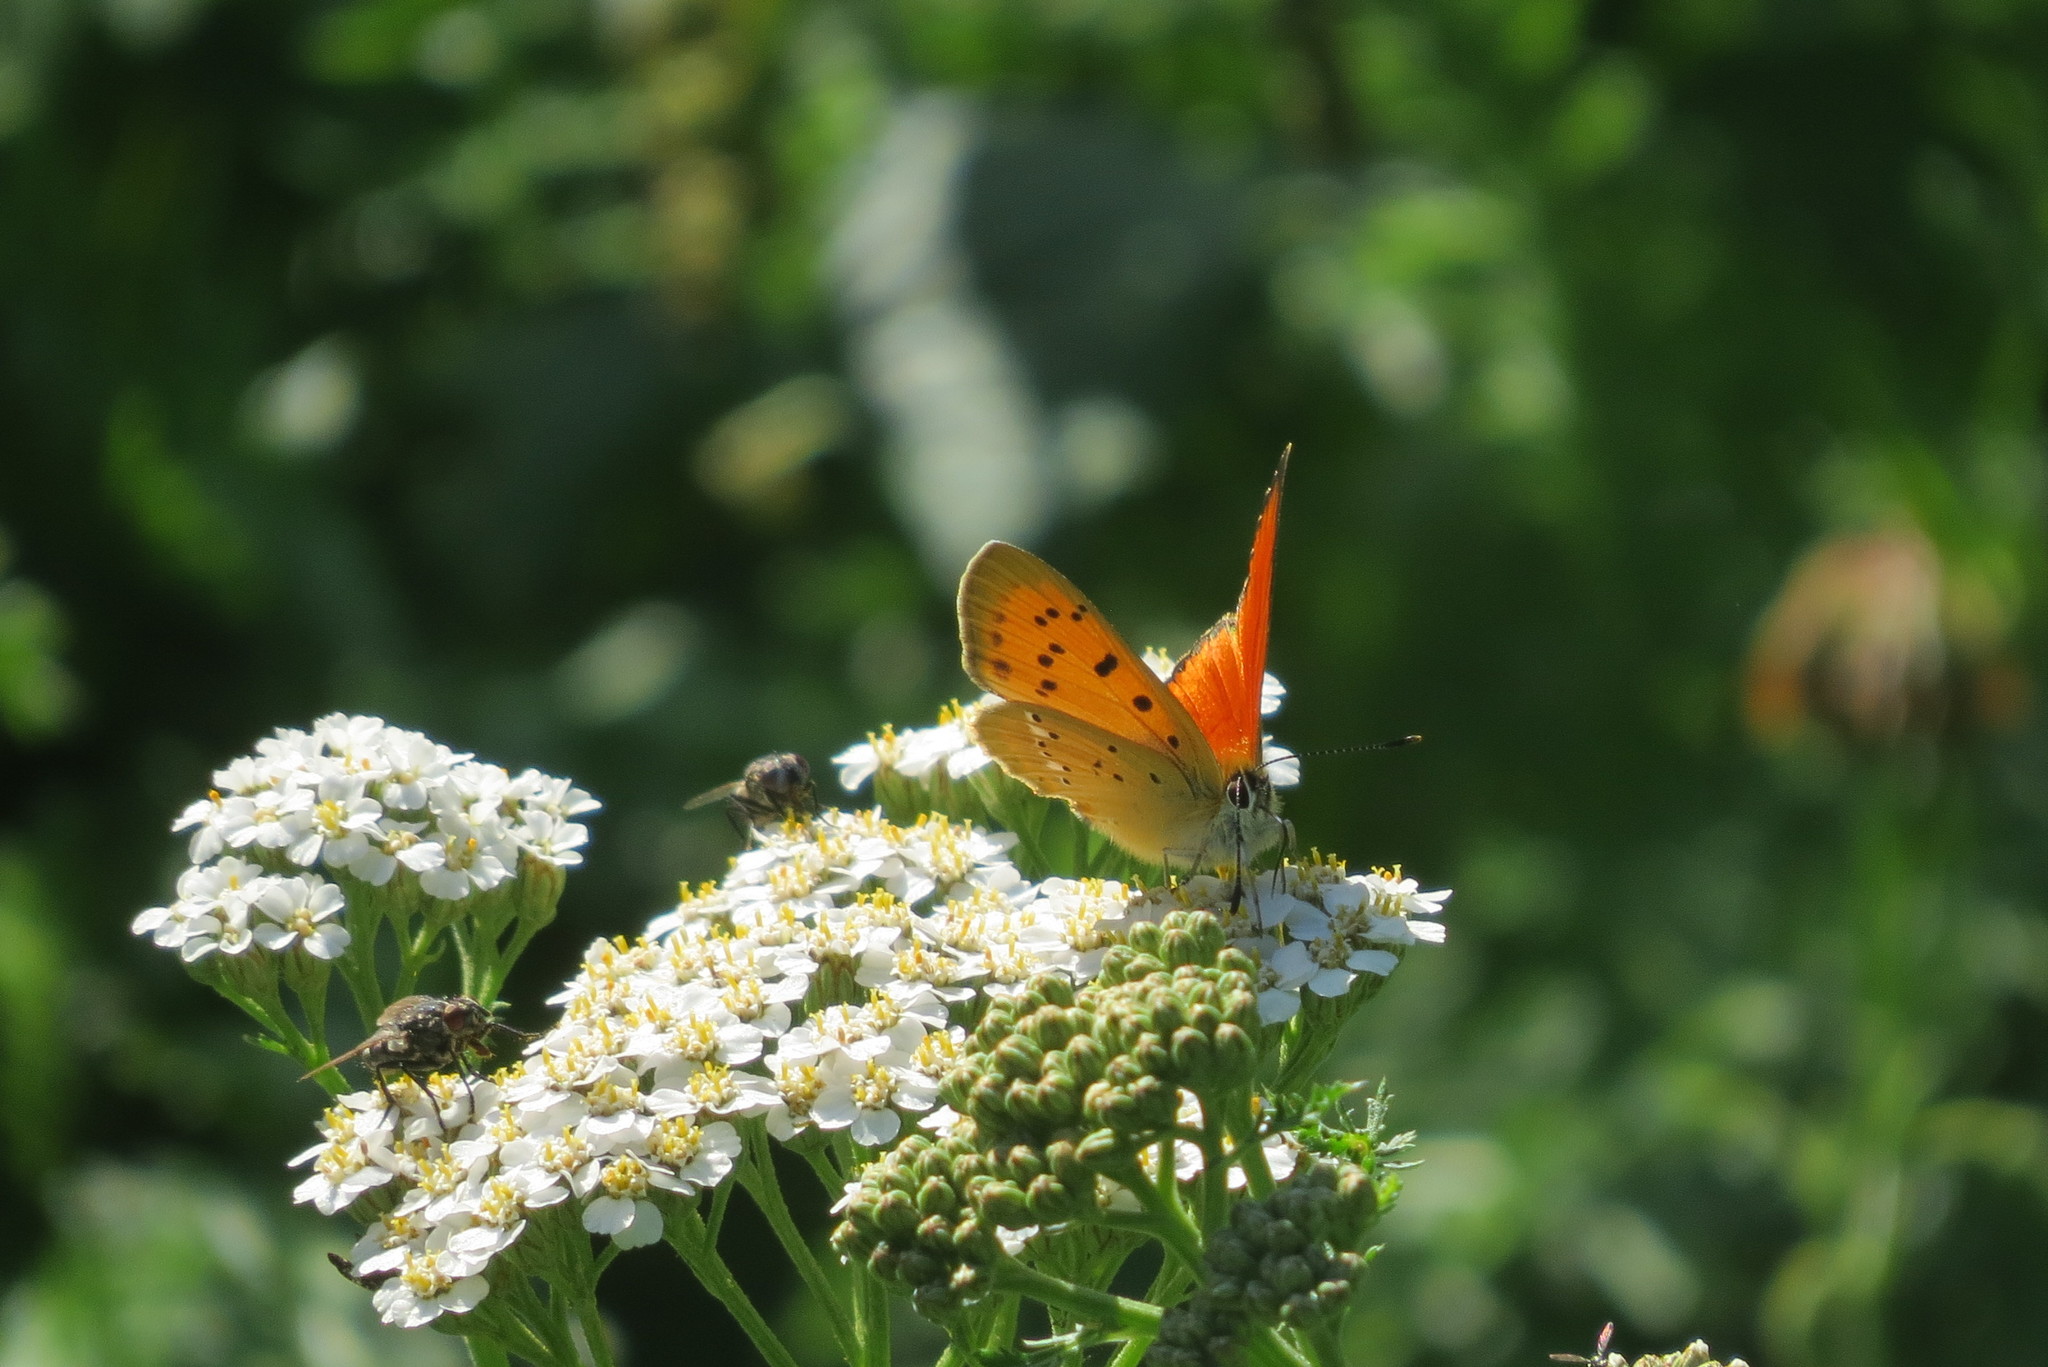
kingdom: Animalia
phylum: Arthropoda
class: Insecta
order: Lepidoptera
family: Lycaenidae
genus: Lycaena
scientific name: Lycaena virgaureae
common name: Scarce copper
